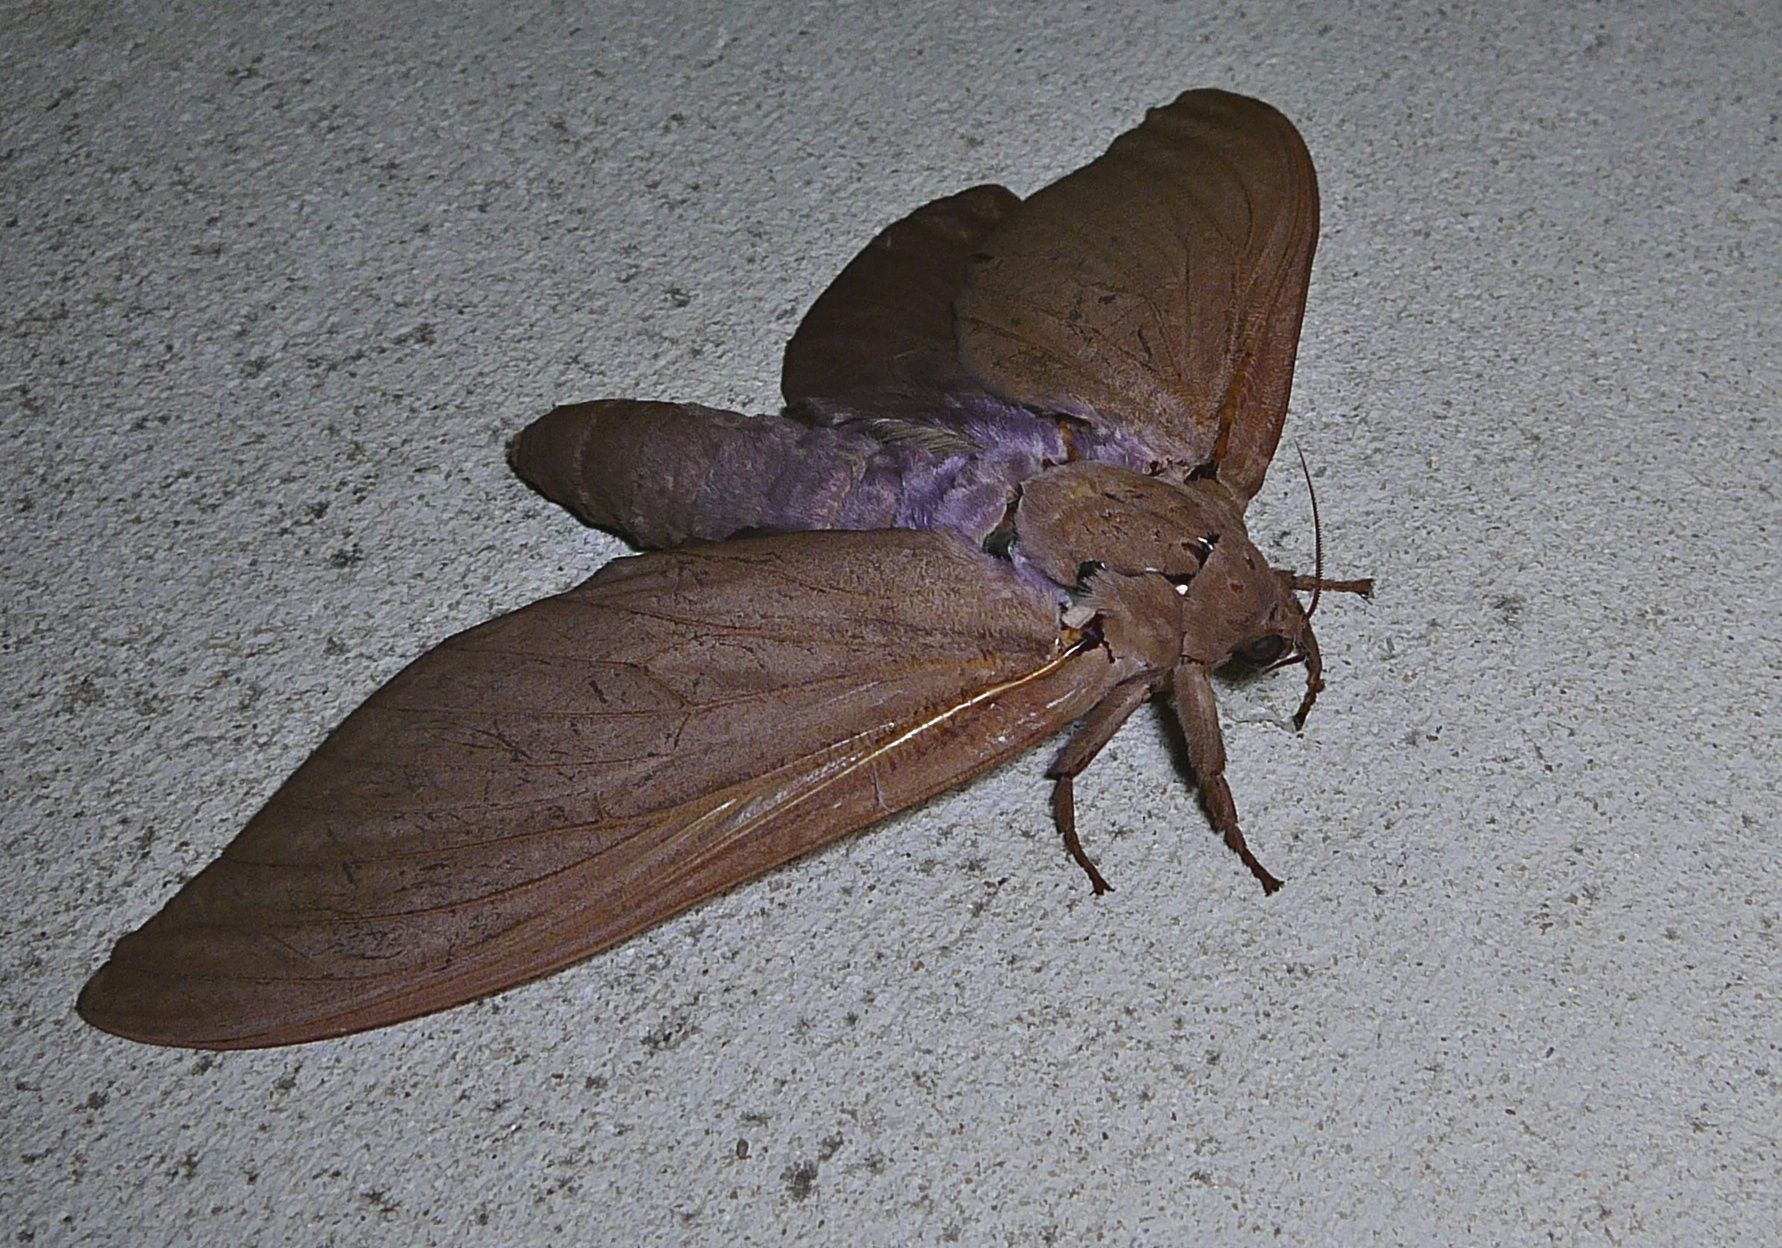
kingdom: Animalia
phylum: Arthropoda
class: Insecta
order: Lepidoptera
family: Hepialidae
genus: Abantiades
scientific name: Abantiades hyalinatus
